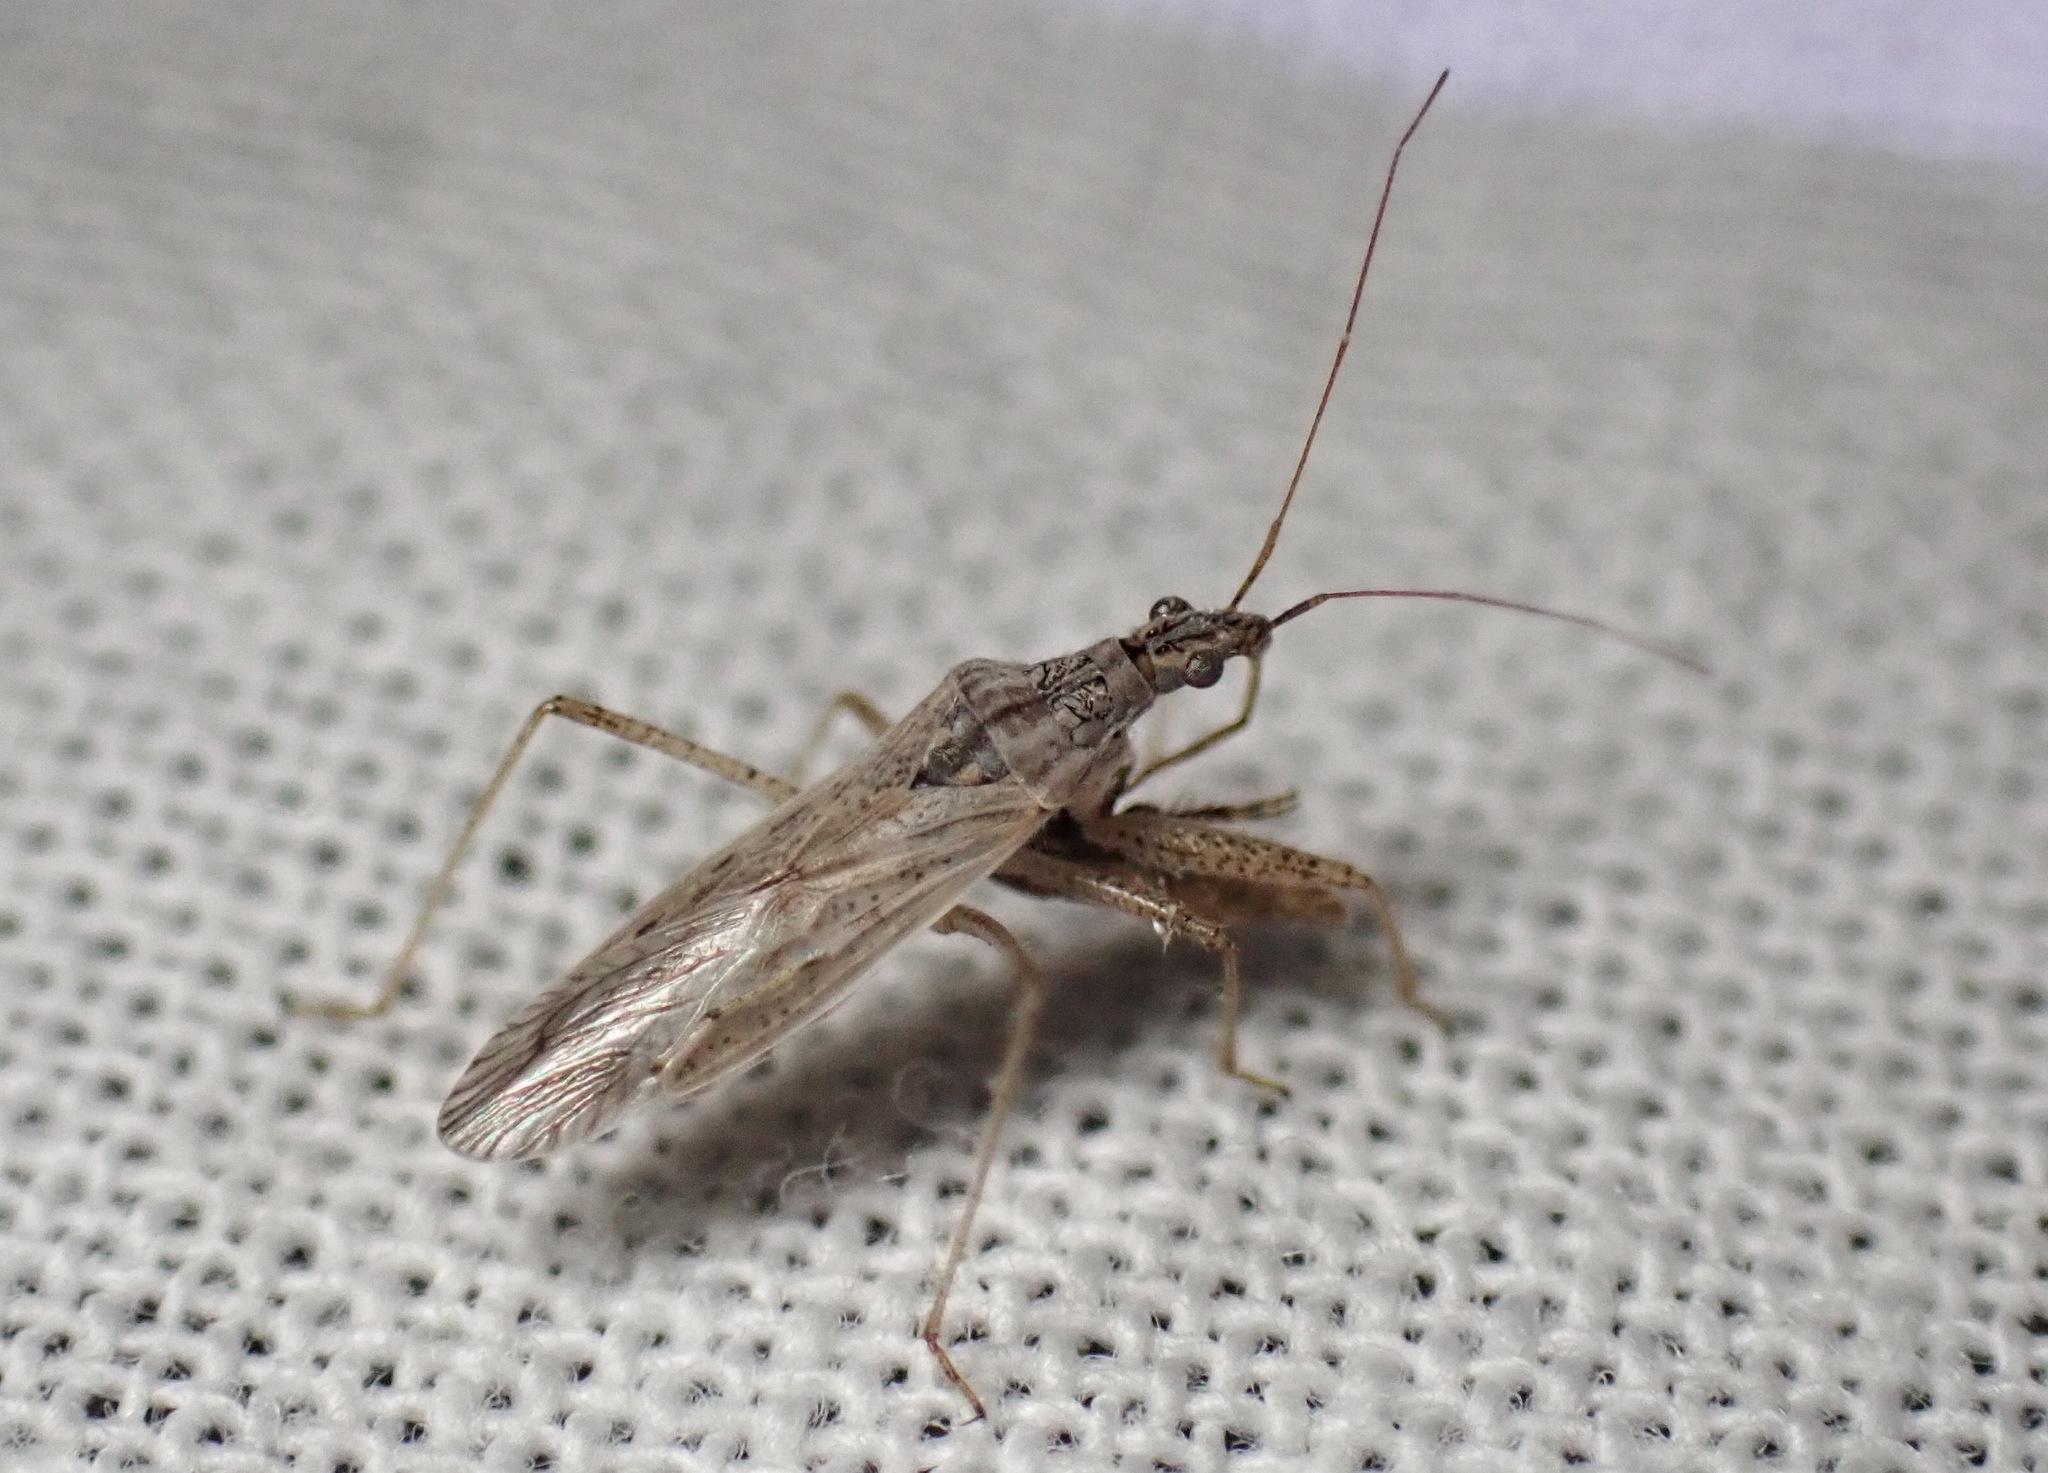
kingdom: Animalia
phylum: Arthropoda
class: Insecta
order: Hemiptera
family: Nabidae
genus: Nabis
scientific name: Nabis americoferus
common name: Common damsel bug
